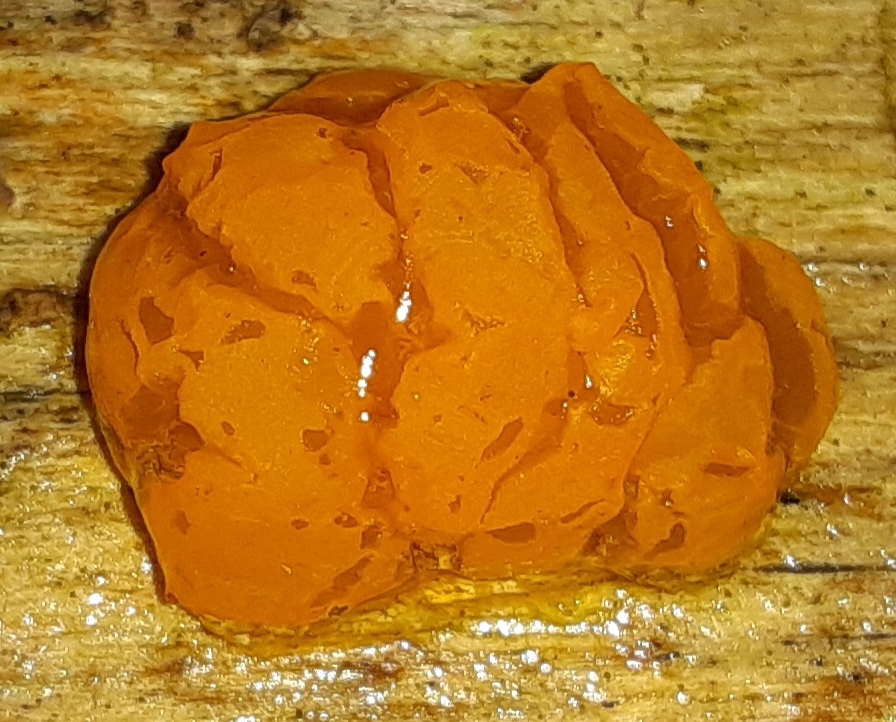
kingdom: Fungi
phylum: Basidiomycota
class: Dacrymycetes
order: Dacrymycetales
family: Dacrymycetaceae
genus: Dacrymyces
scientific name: Dacrymyces chrysospermus
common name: Orange jelly spot
